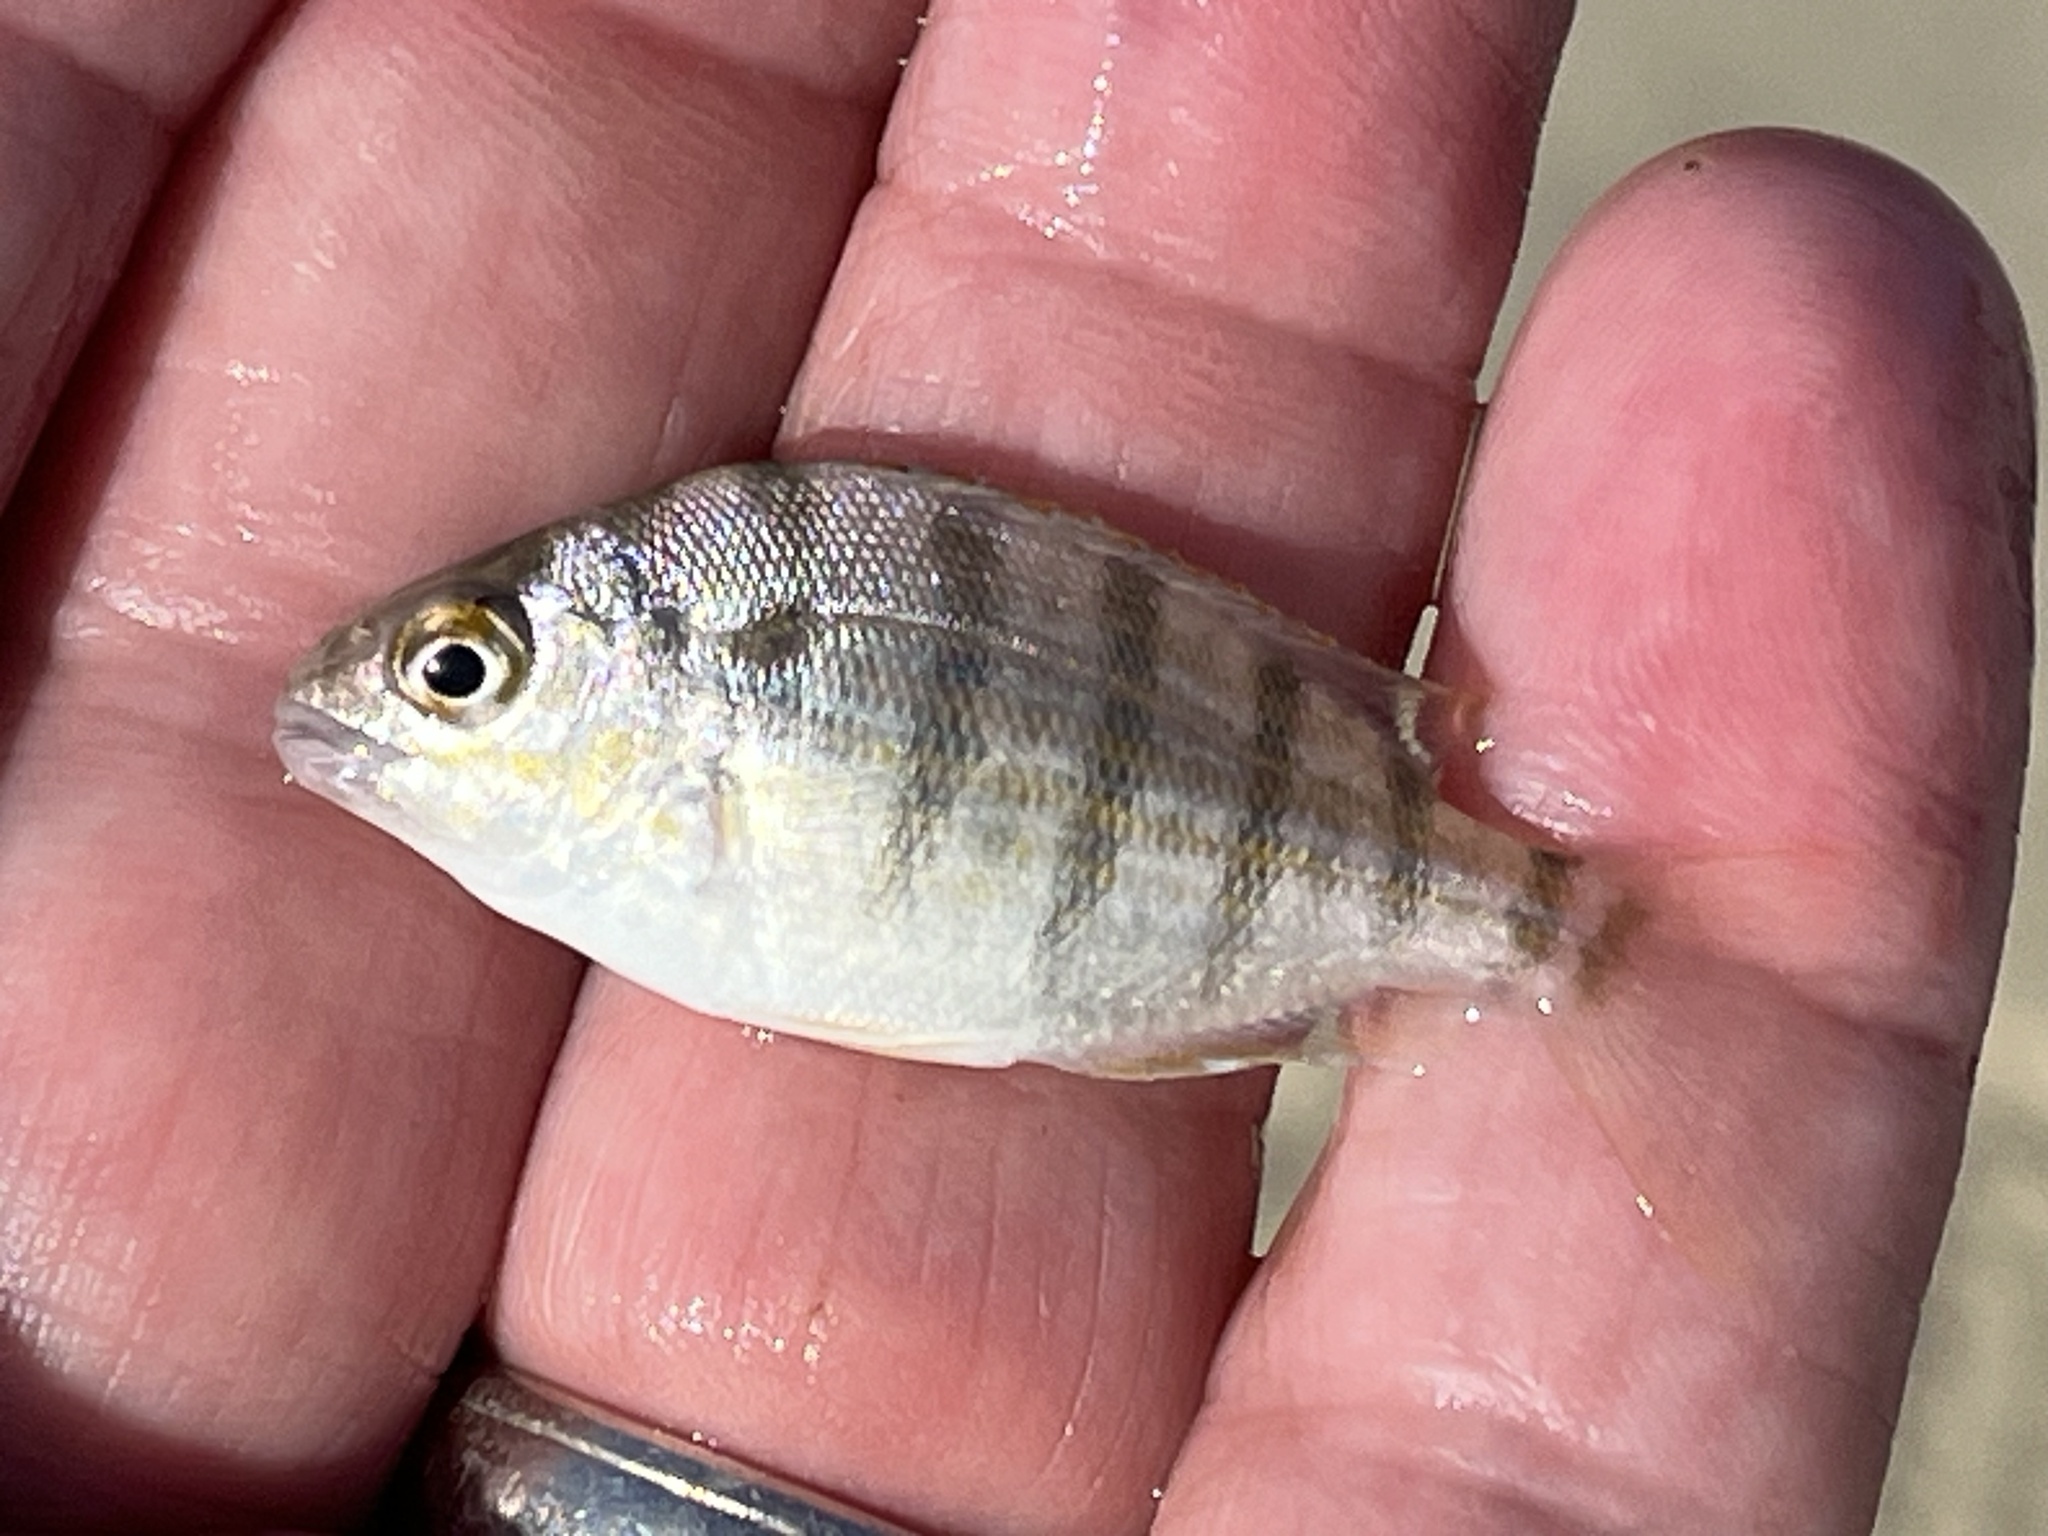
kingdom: Animalia
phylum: Chordata
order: Perciformes
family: Sparidae
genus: Lagodon
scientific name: Lagodon rhomboides
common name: Pinfish
